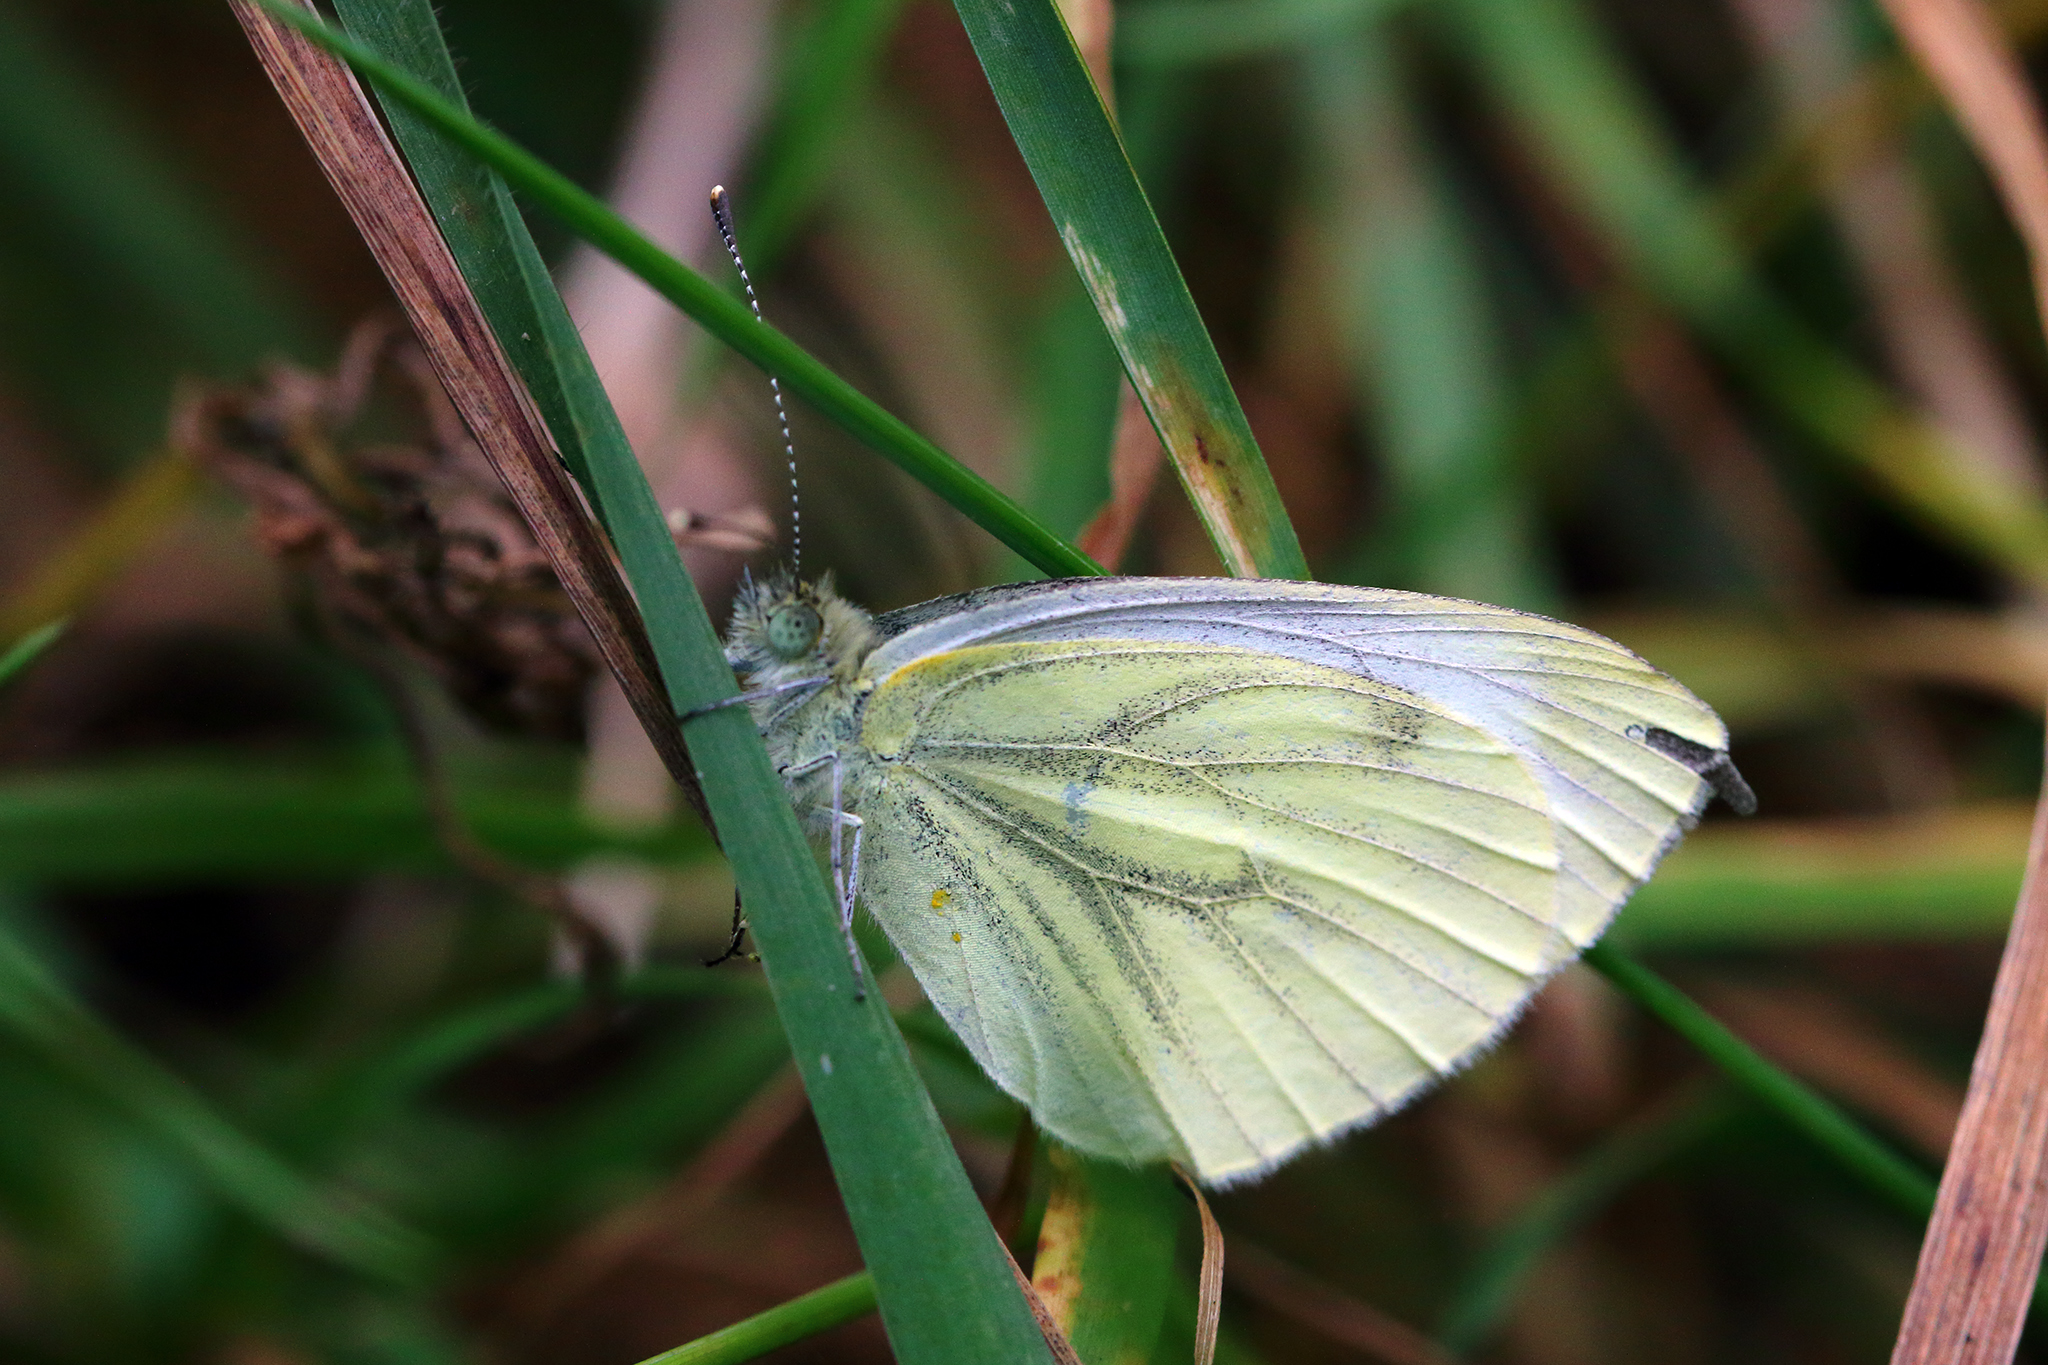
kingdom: Animalia
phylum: Arthropoda
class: Insecta
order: Lepidoptera
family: Pieridae
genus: Pieris
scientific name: Pieris napi
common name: Green-veined white
